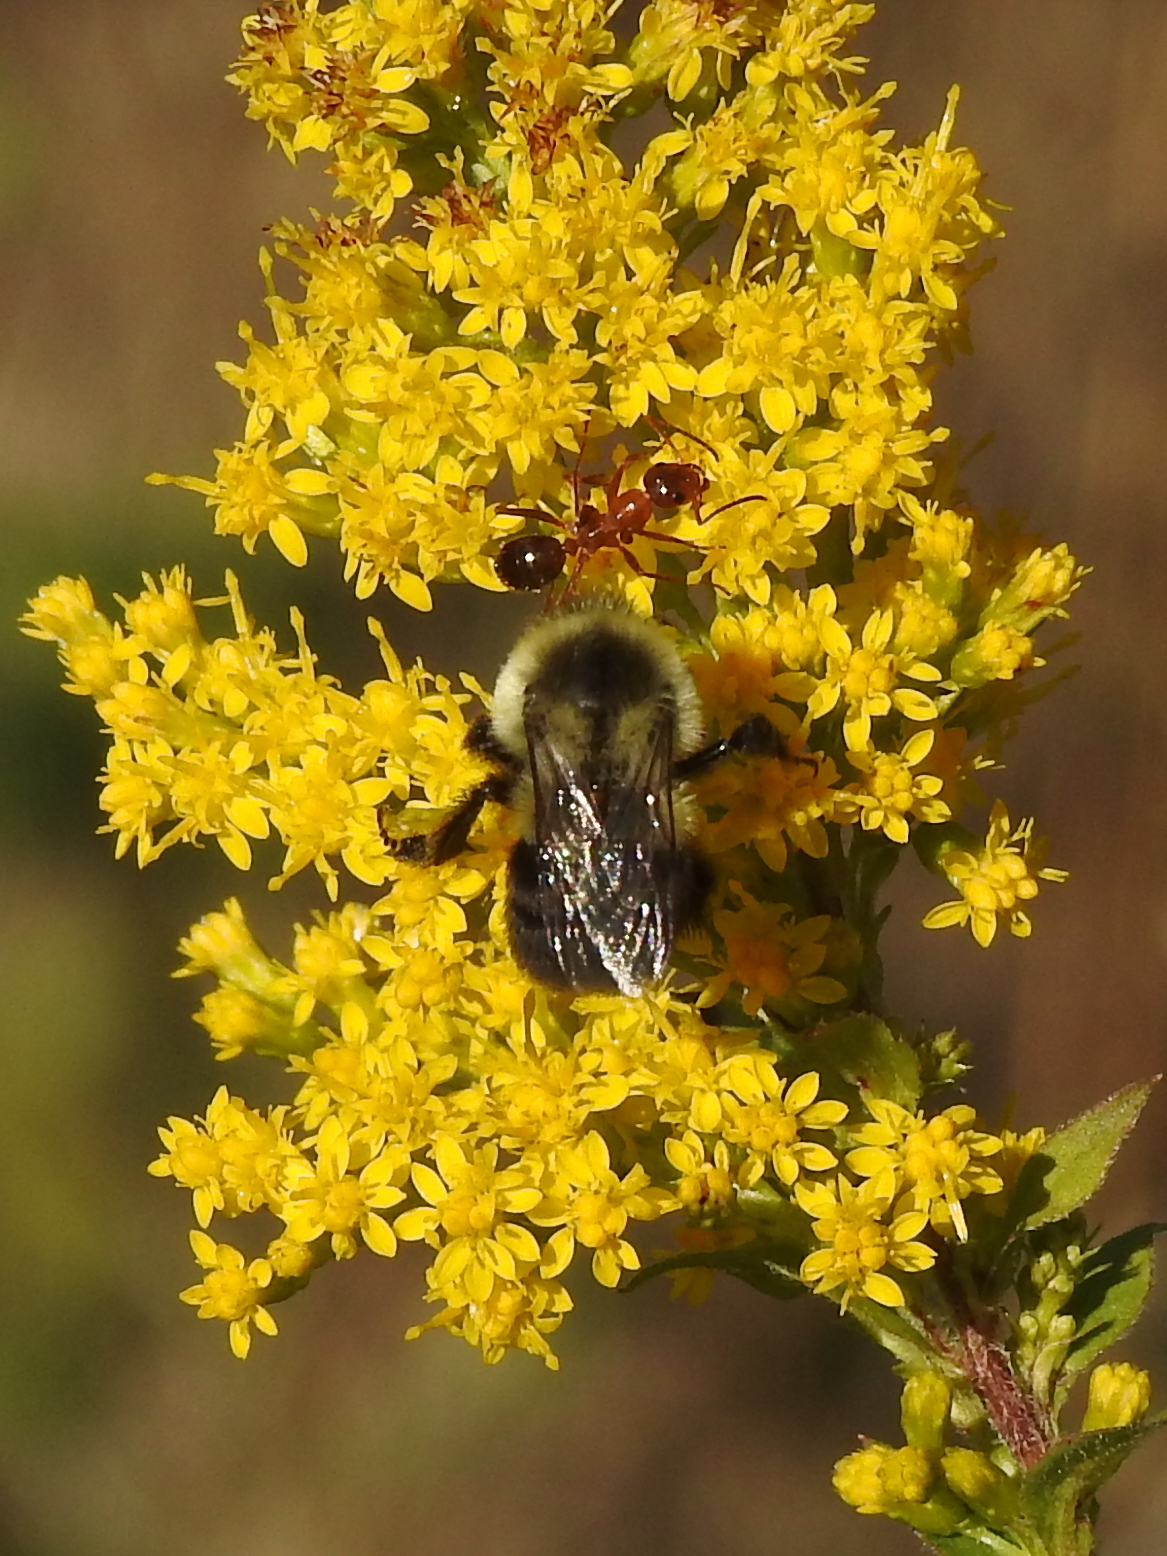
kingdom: Animalia
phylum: Arthropoda
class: Insecta
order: Hymenoptera
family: Apidae
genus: Bombus
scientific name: Bombus impatiens
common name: Common eastern bumble bee
